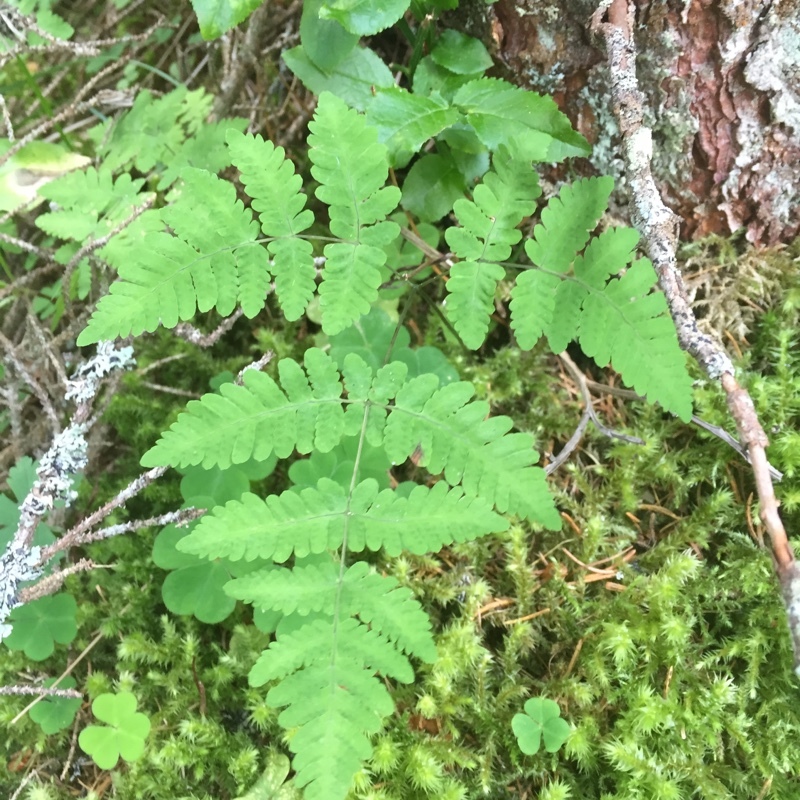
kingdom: Plantae
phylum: Tracheophyta
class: Polypodiopsida
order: Polypodiales
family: Cystopteridaceae
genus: Gymnocarpium
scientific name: Gymnocarpium dryopteris
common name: Oak fern
